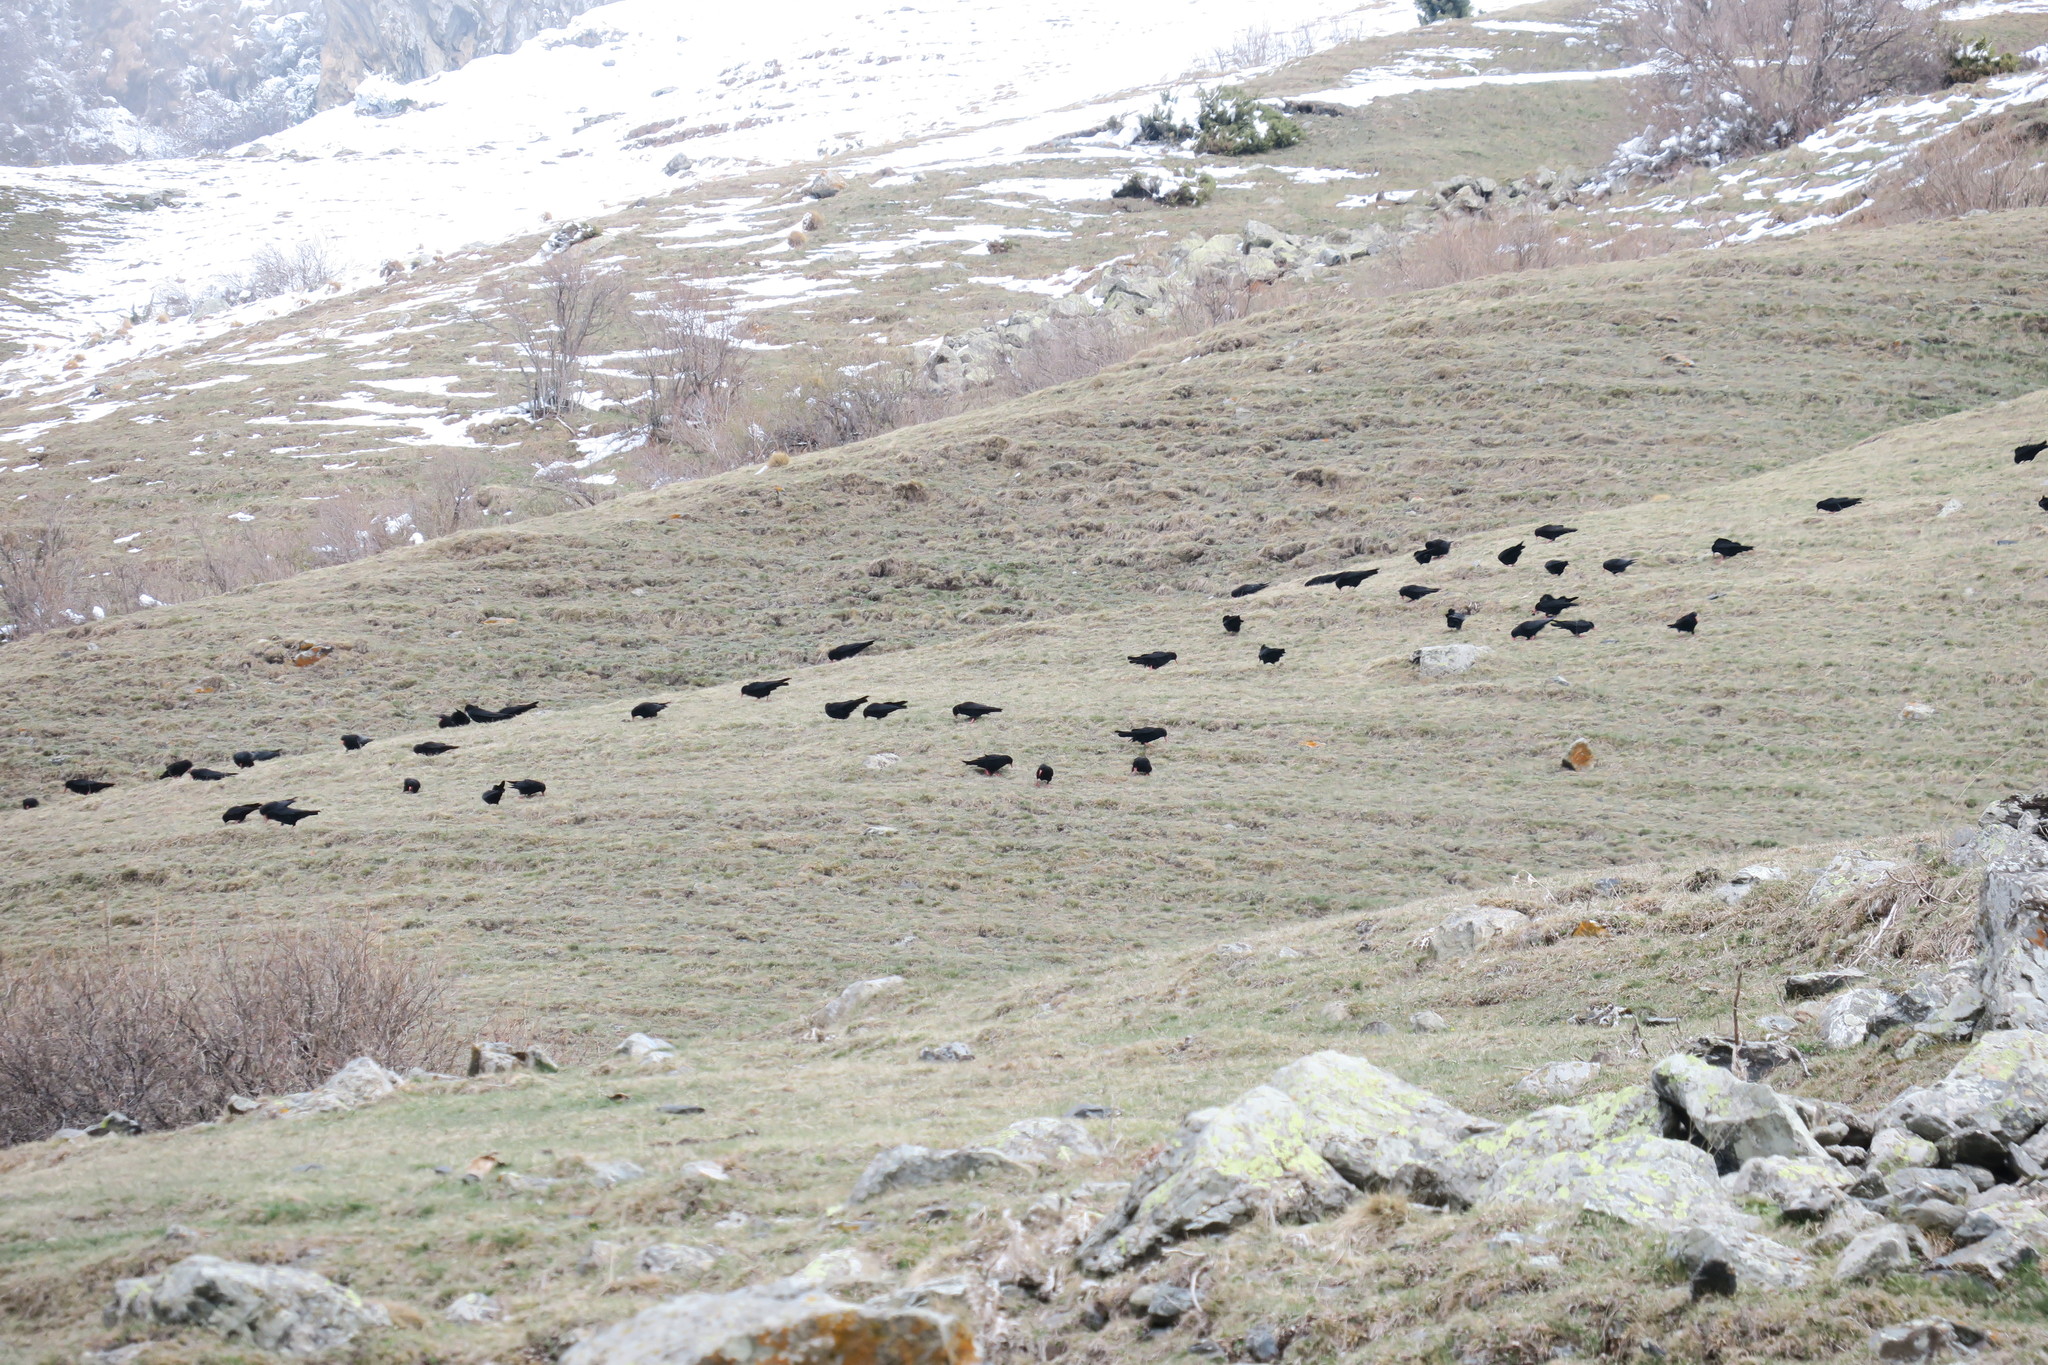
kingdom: Animalia
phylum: Chordata
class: Aves
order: Passeriformes
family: Corvidae
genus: Pyrrhocorax
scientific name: Pyrrhocorax pyrrhocorax
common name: Red-billed chough
